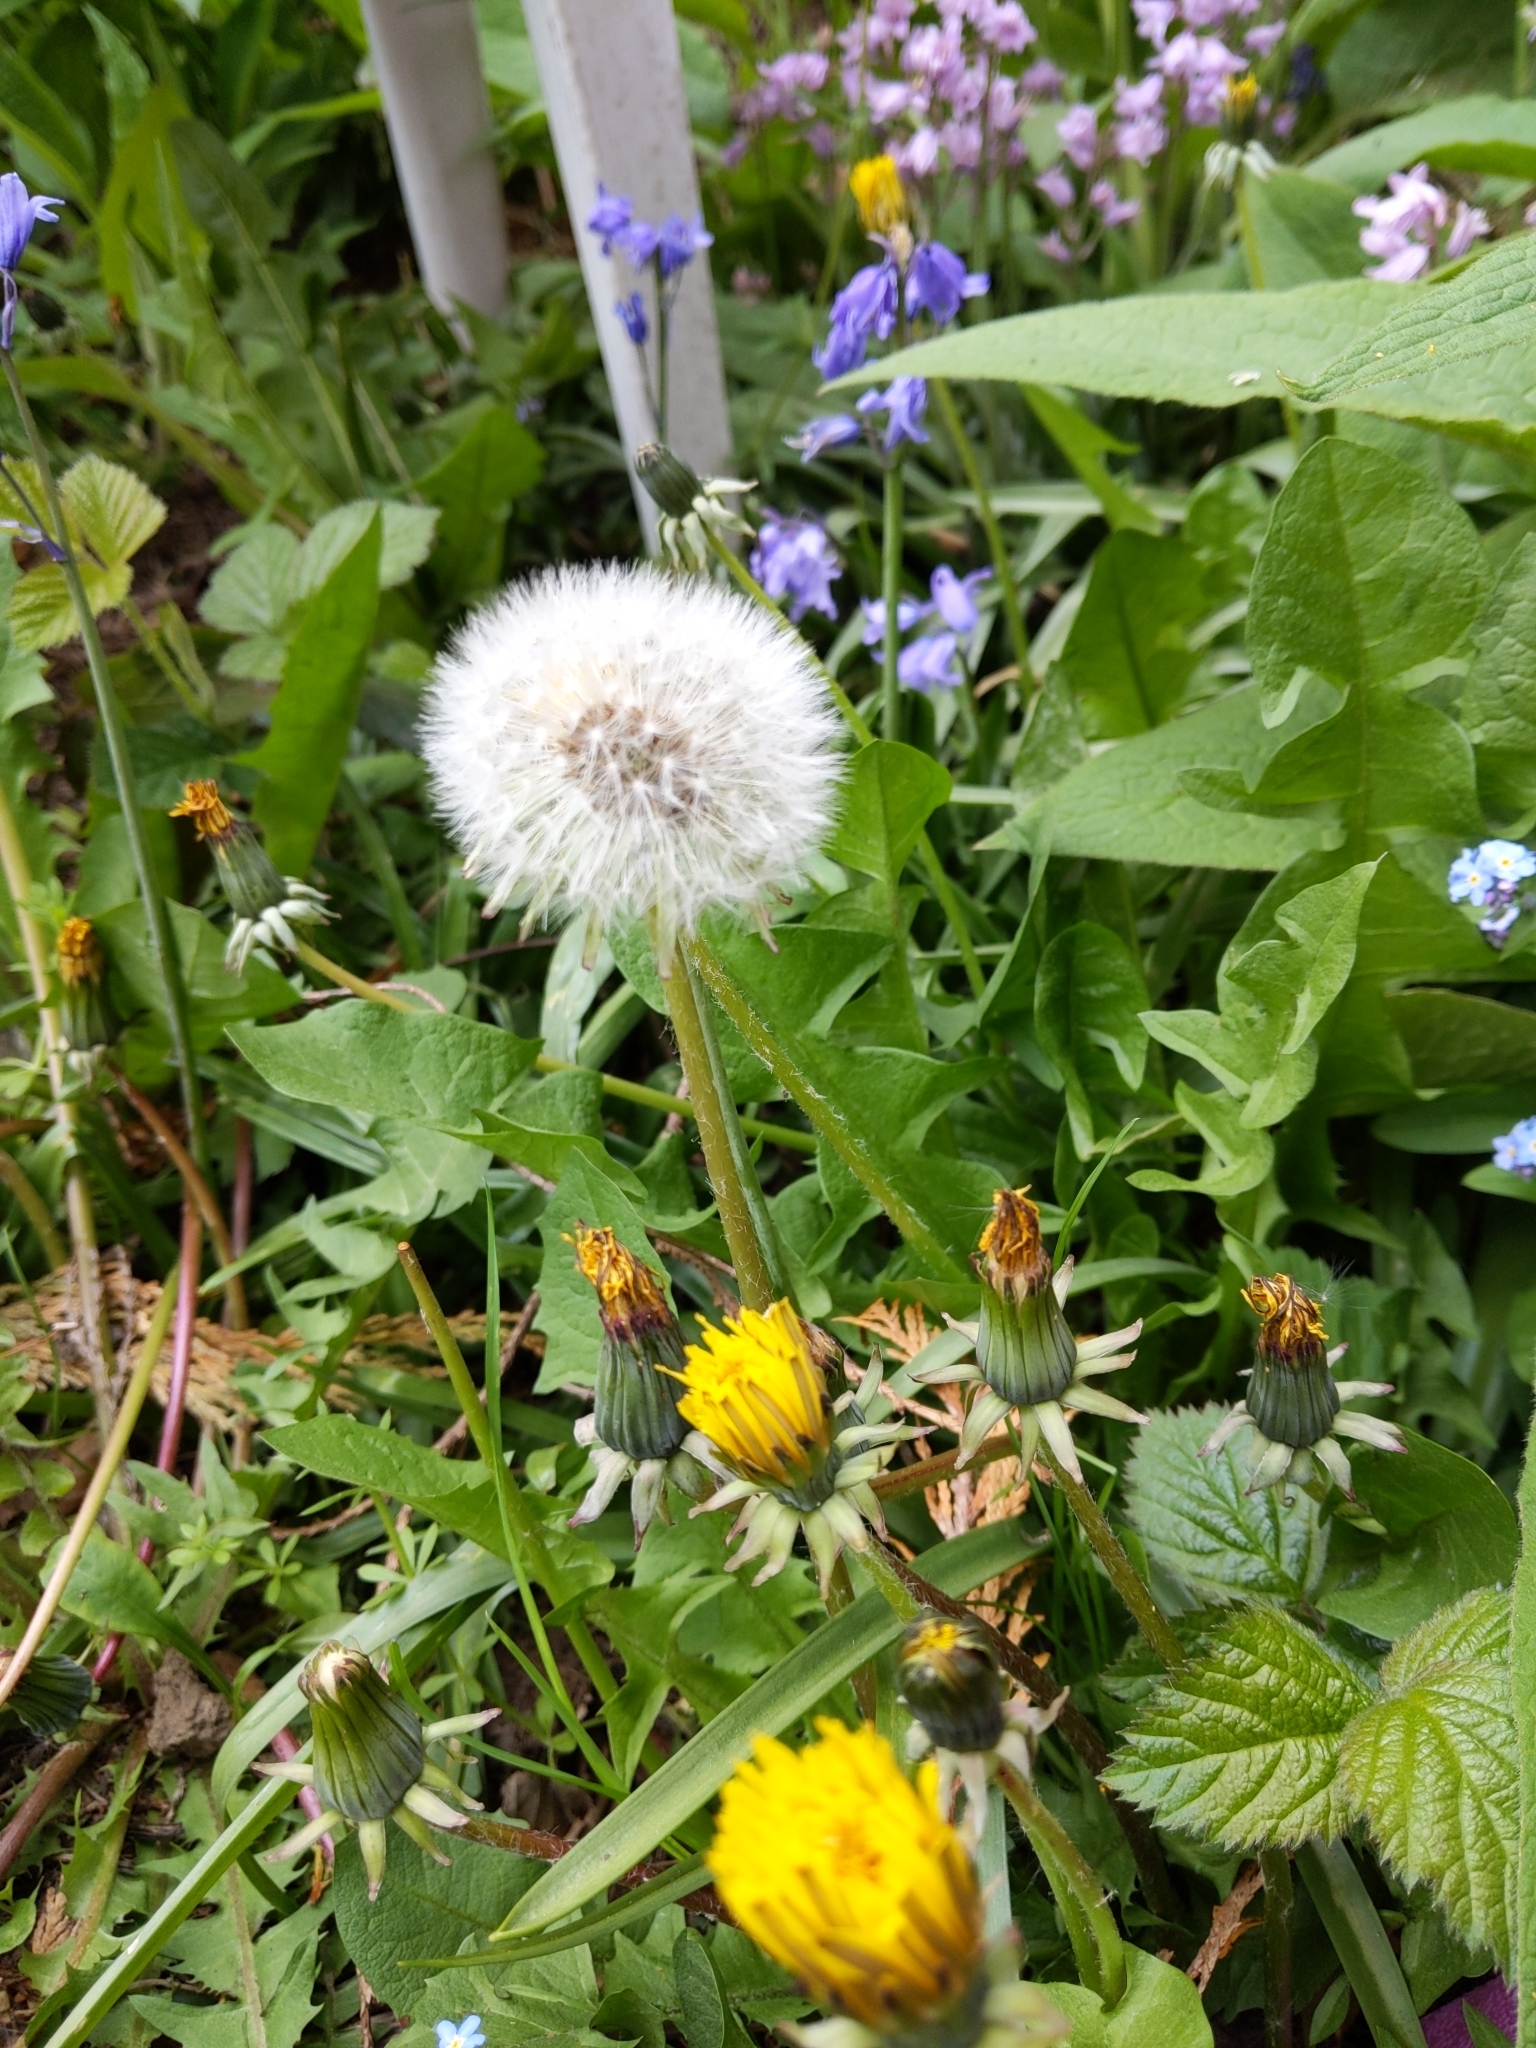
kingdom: Plantae
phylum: Tracheophyta
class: Magnoliopsida
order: Asterales
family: Asteraceae
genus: Taraxacum
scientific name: Taraxacum officinale
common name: Common dandelion
